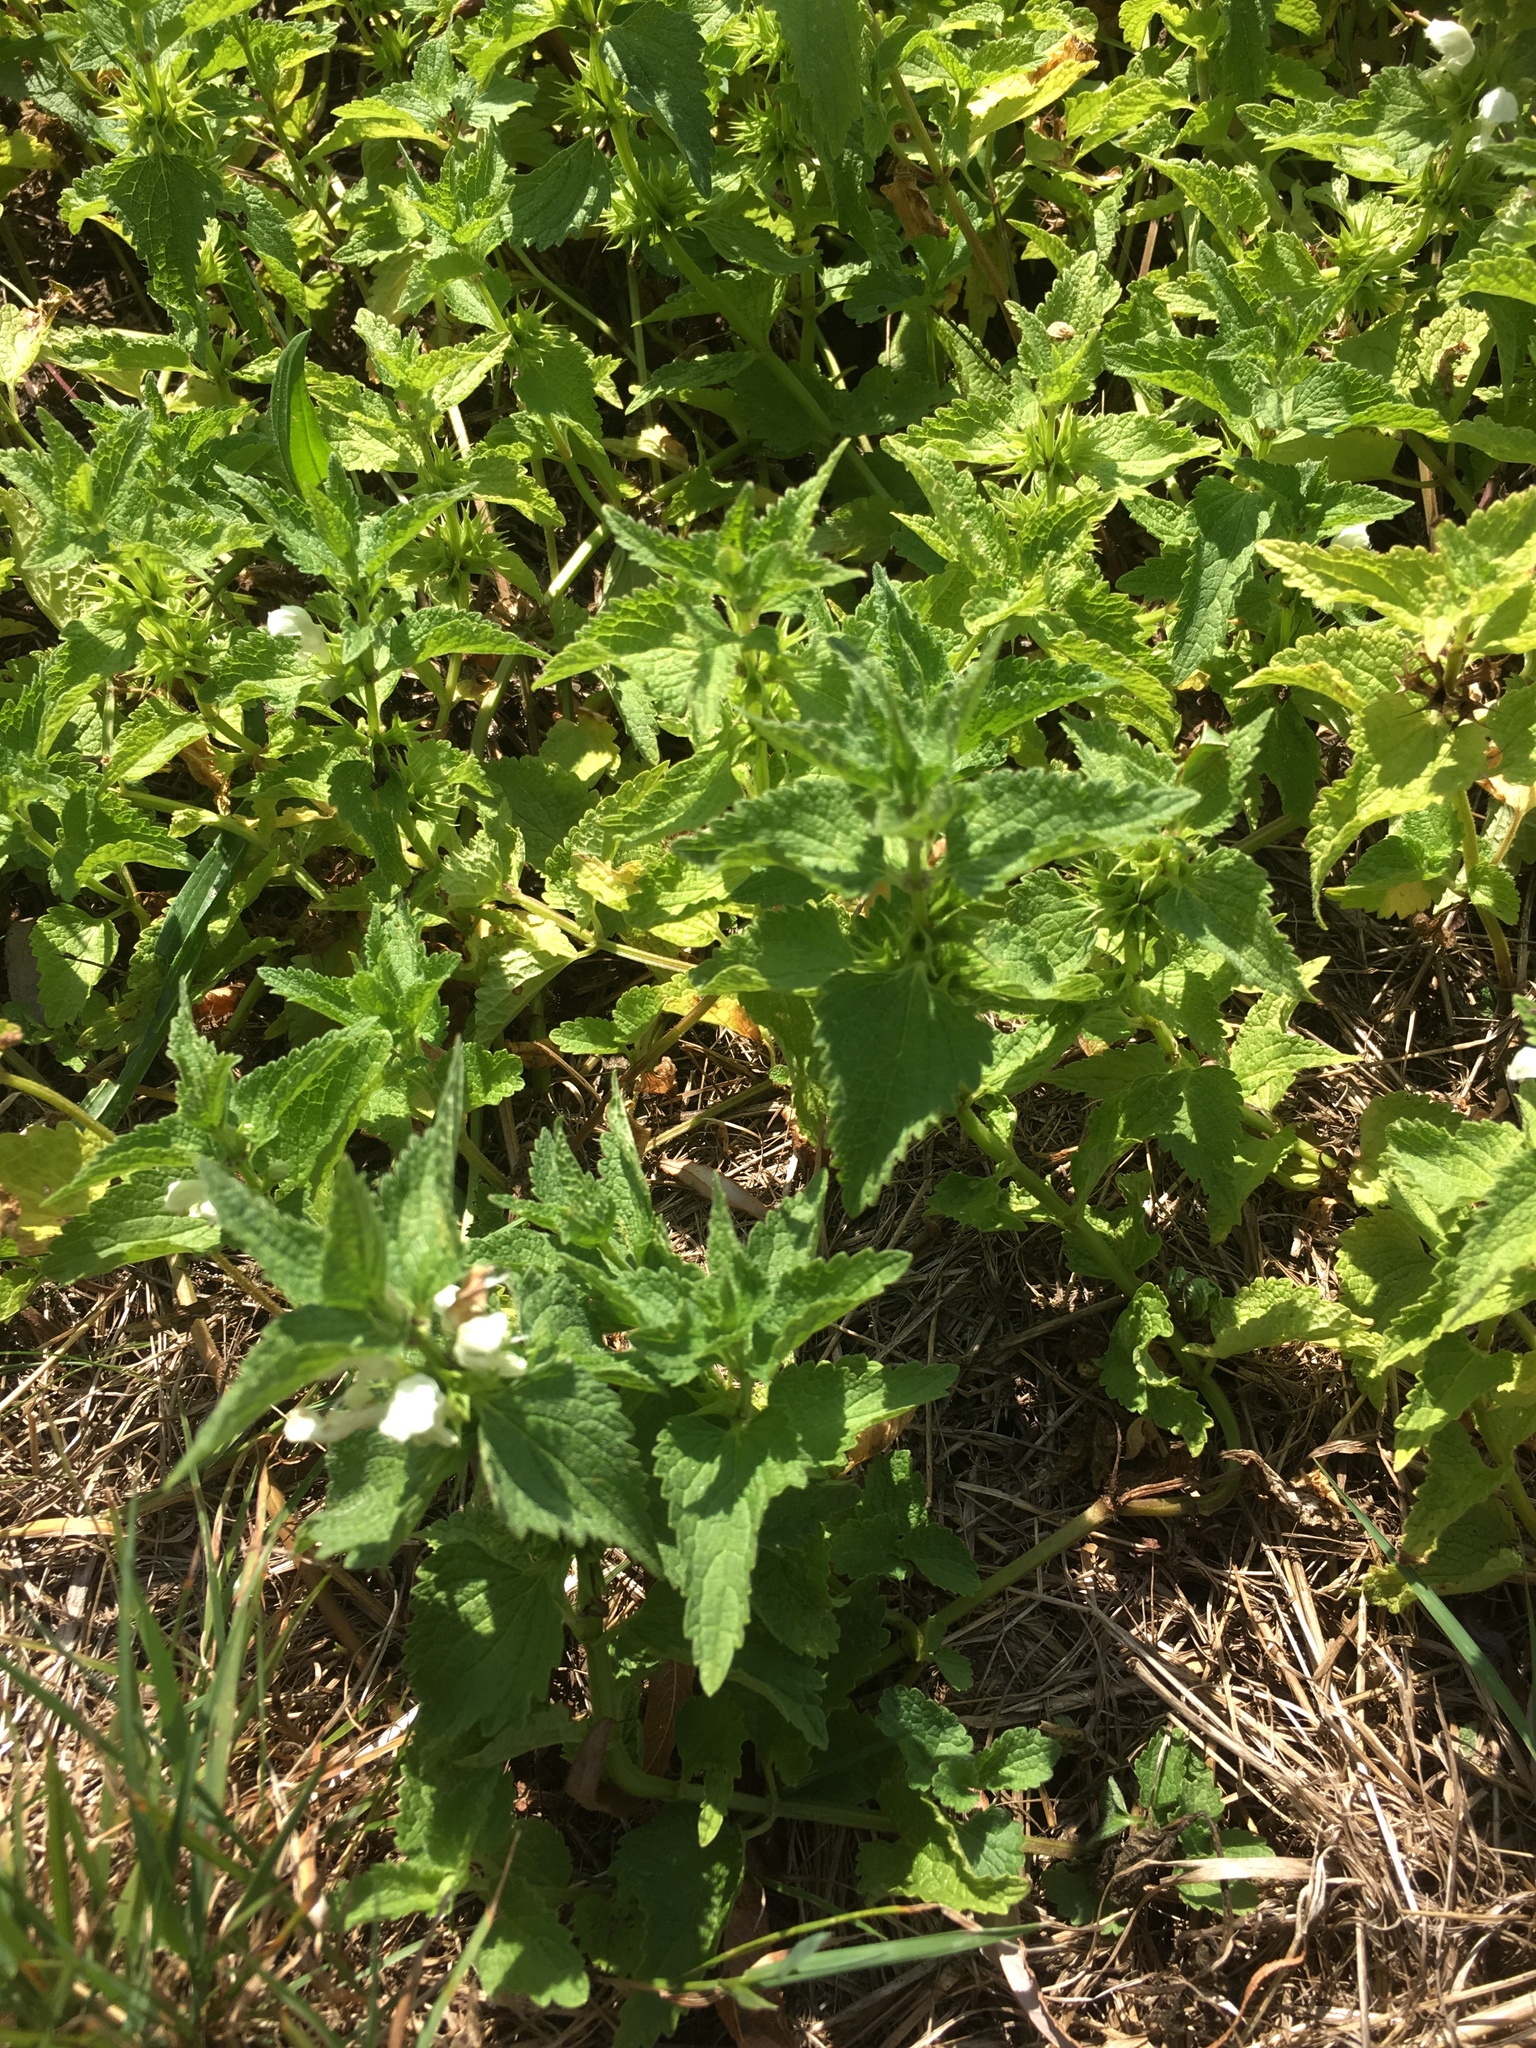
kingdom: Plantae
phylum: Tracheophyta
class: Magnoliopsida
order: Lamiales
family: Lamiaceae
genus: Lamium
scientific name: Lamium album
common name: White dead-nettle
